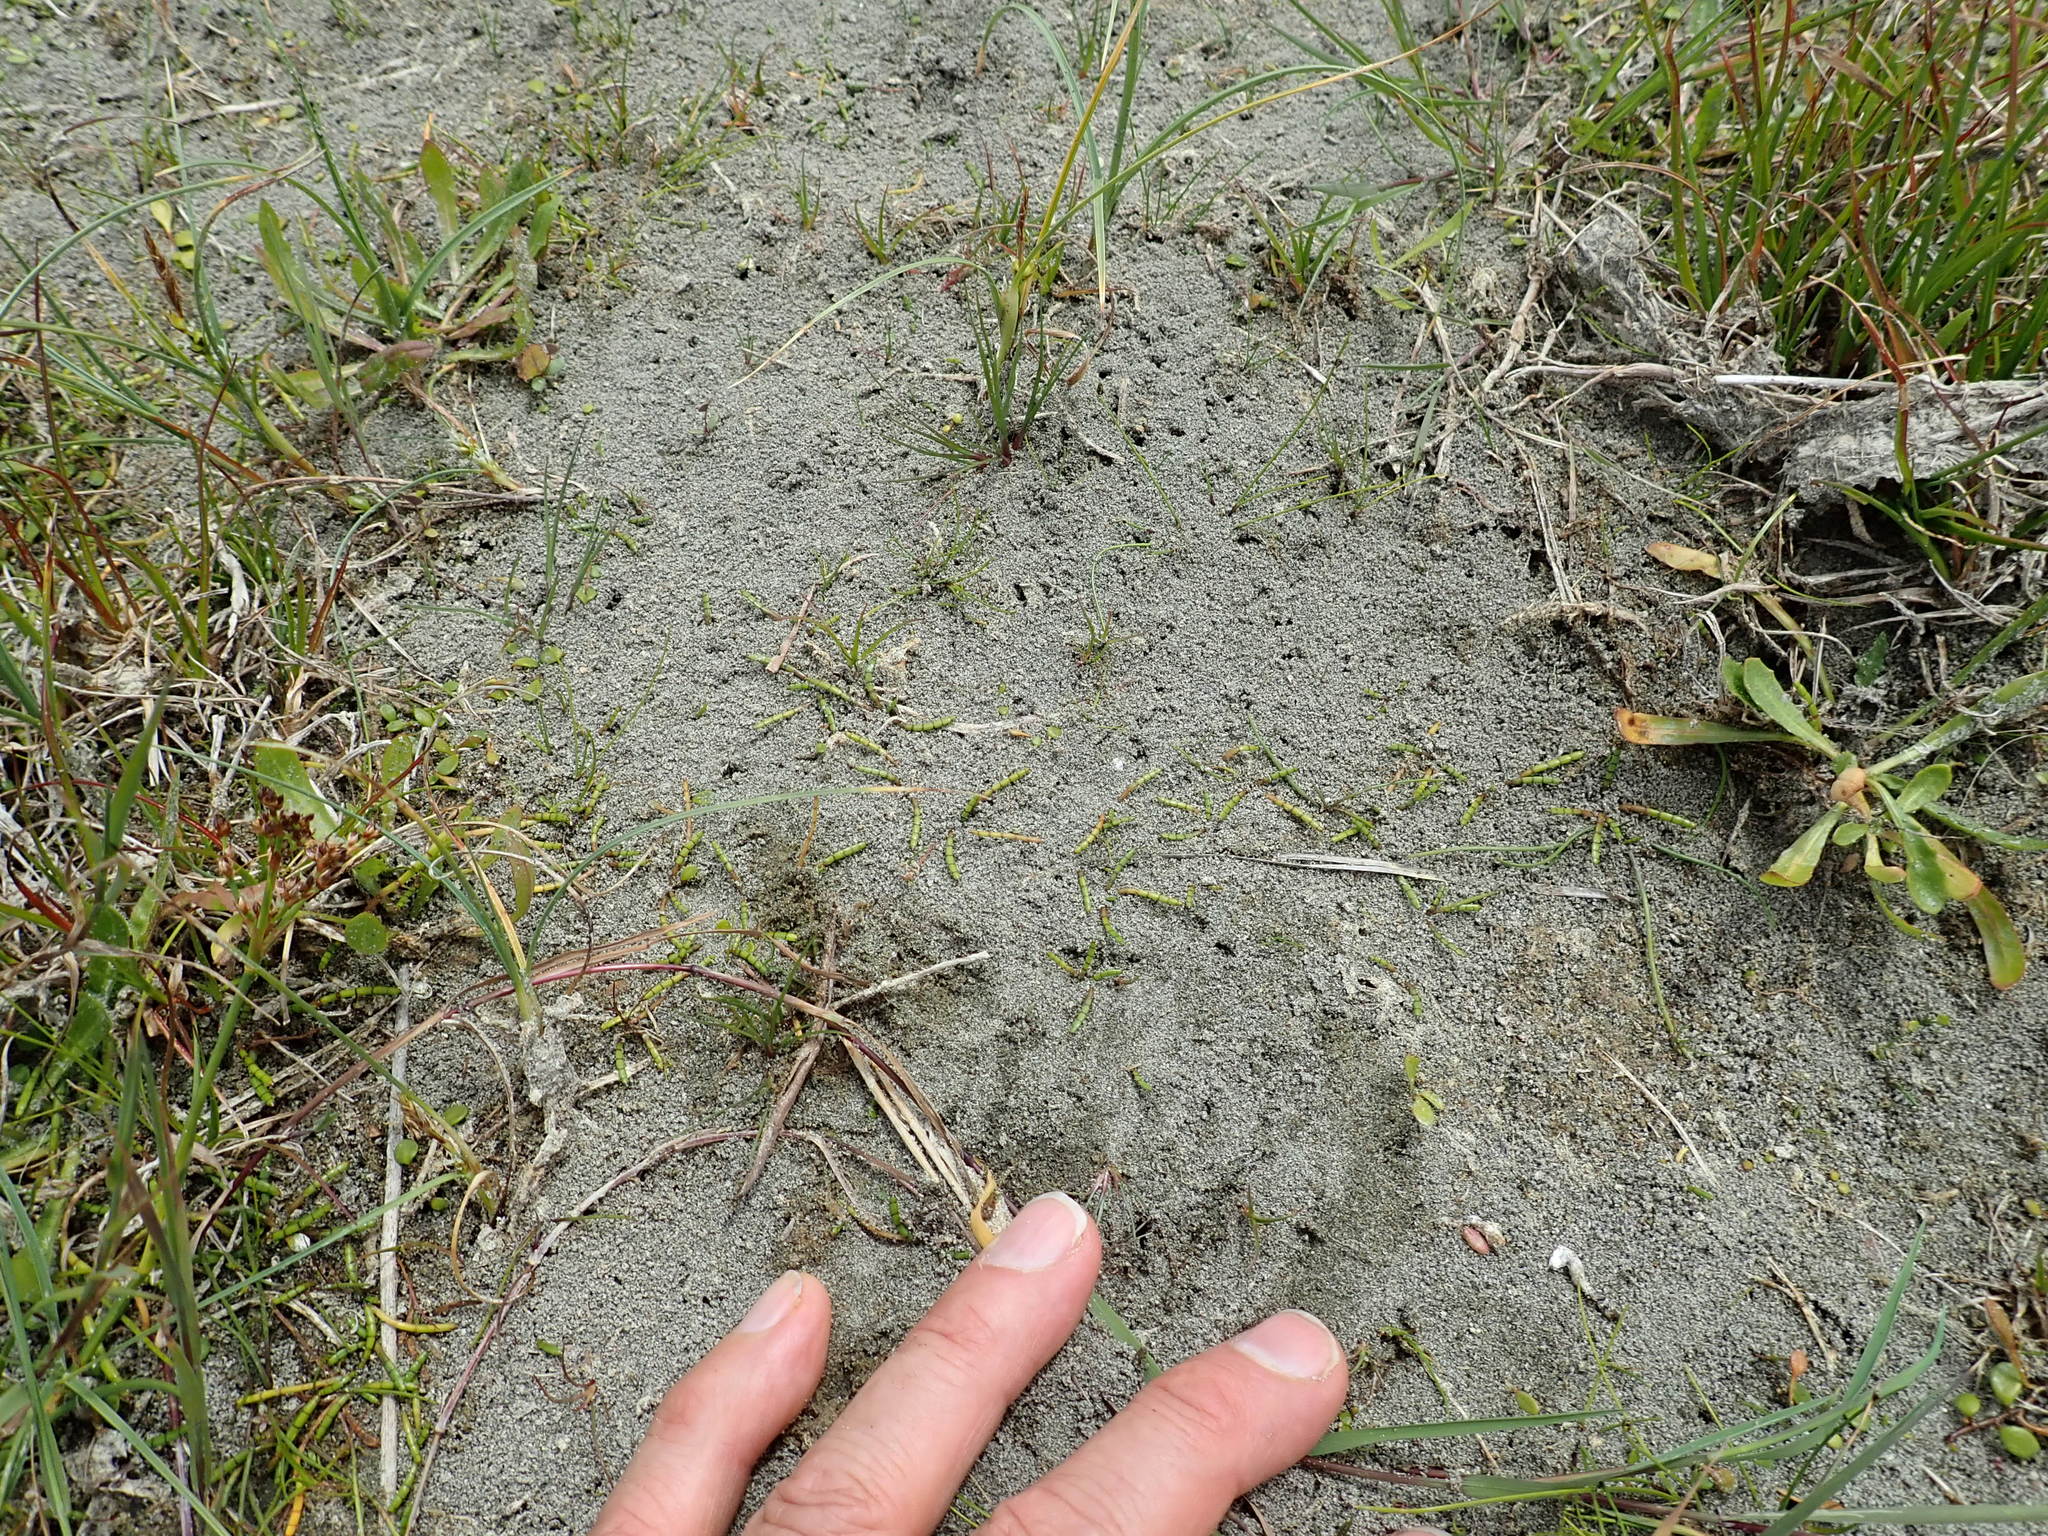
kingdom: Plantae
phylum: Tracheophyta
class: Magnoliopsida
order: Apiales
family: Apiaceae
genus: Lilaeopsis
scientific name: Lilaeopsis novae-zelandiae
